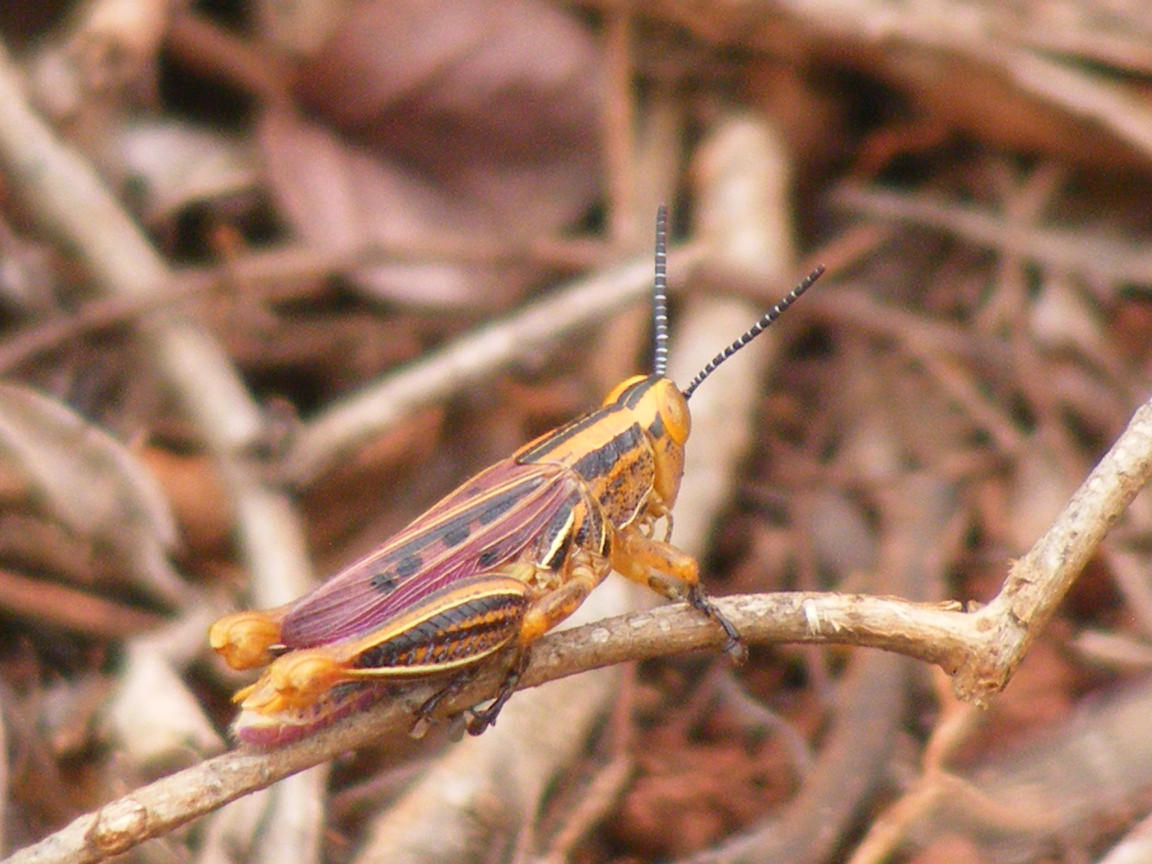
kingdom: Animalia
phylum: Arthropoda
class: Insecta
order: Orthoptera
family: Acrididae
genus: Cardeniopsis
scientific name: Cardeniopsis nigropunctatus
